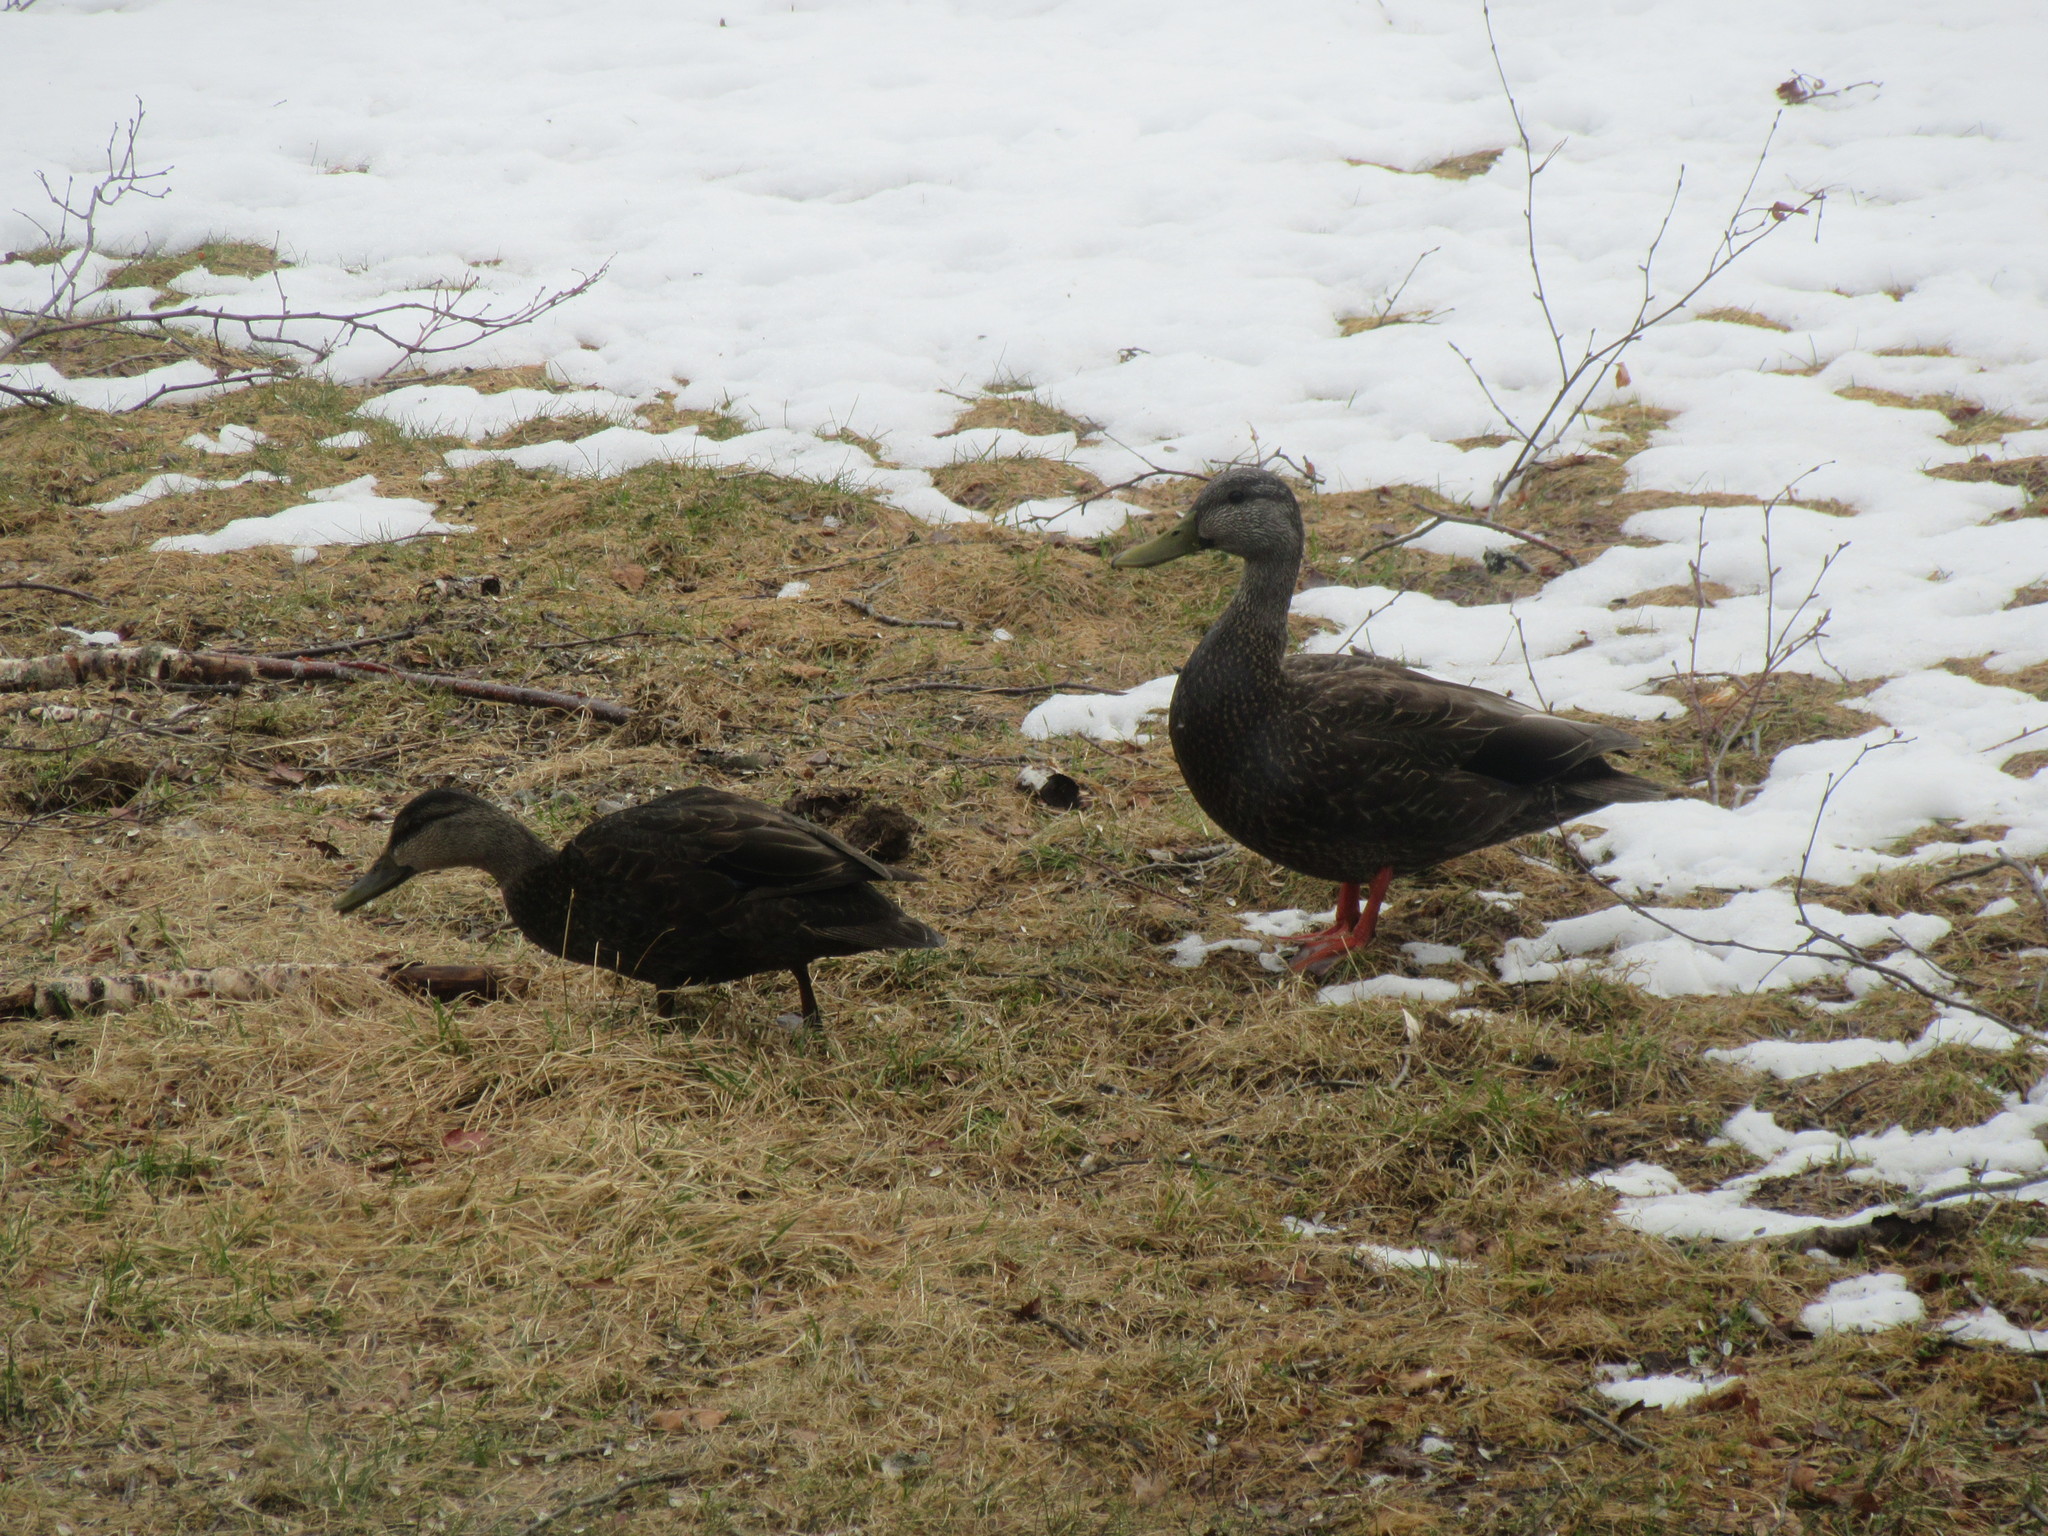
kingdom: Animalia
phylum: Chordata
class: Aves
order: Anseriformes
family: Anatidae
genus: Anas
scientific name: Anas rubripes
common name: American black duck
